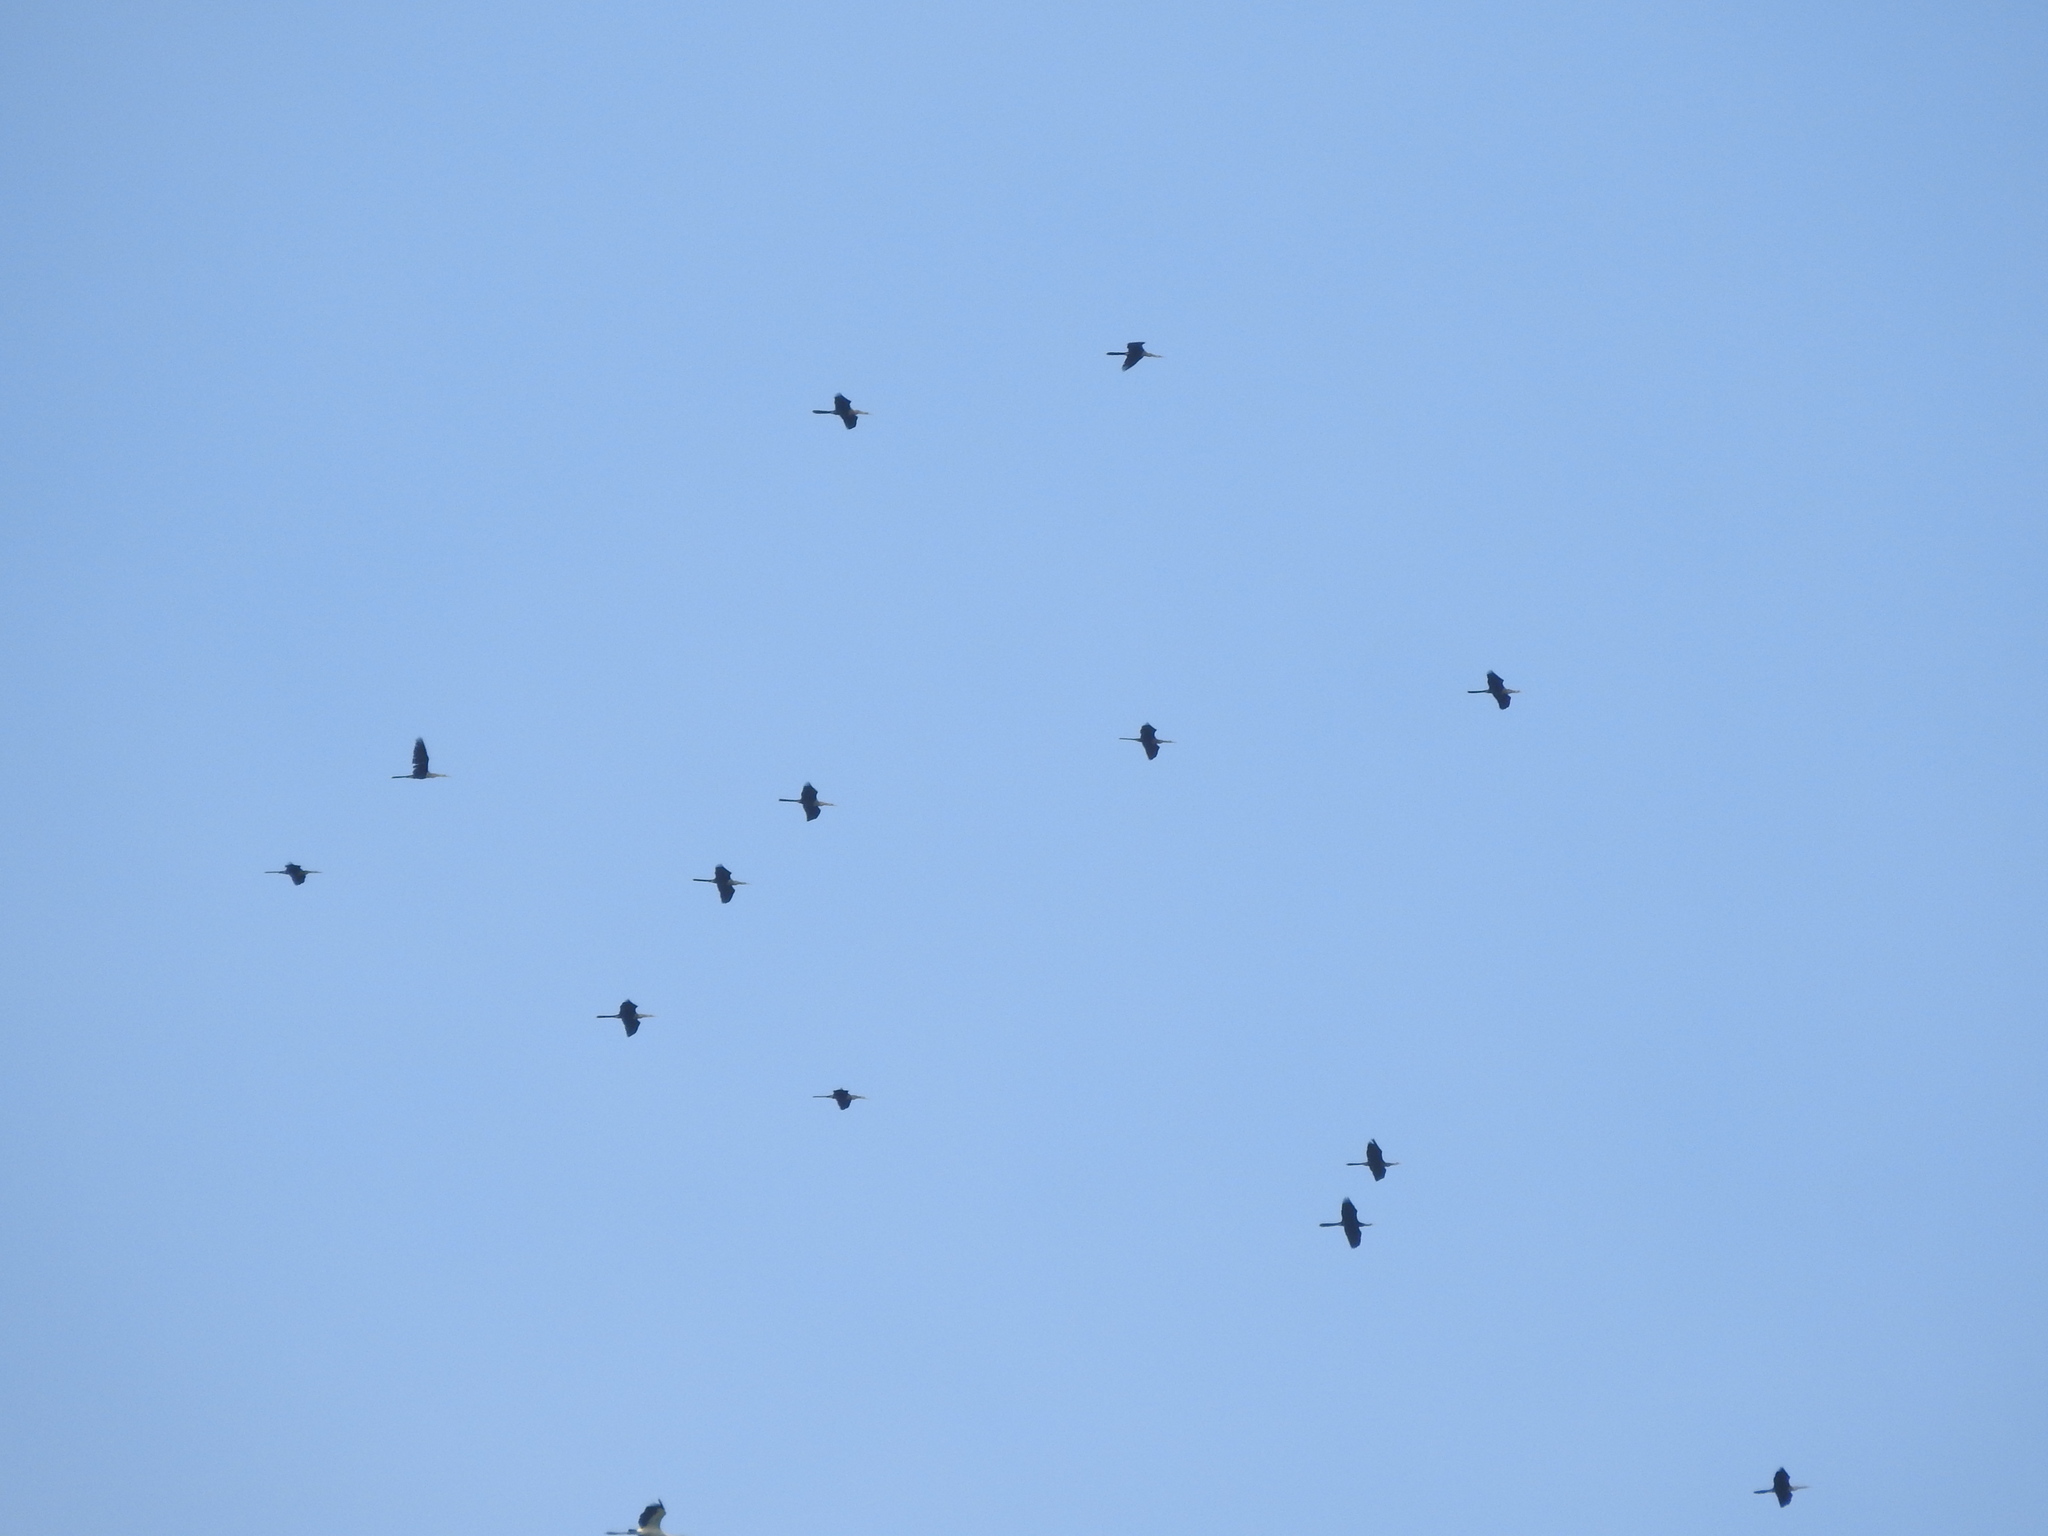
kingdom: Animalia
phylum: Chordata
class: Aves
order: Suliformes
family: Anhingidae
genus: Anhinga
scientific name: Anhinga anhinga
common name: Anhinga
